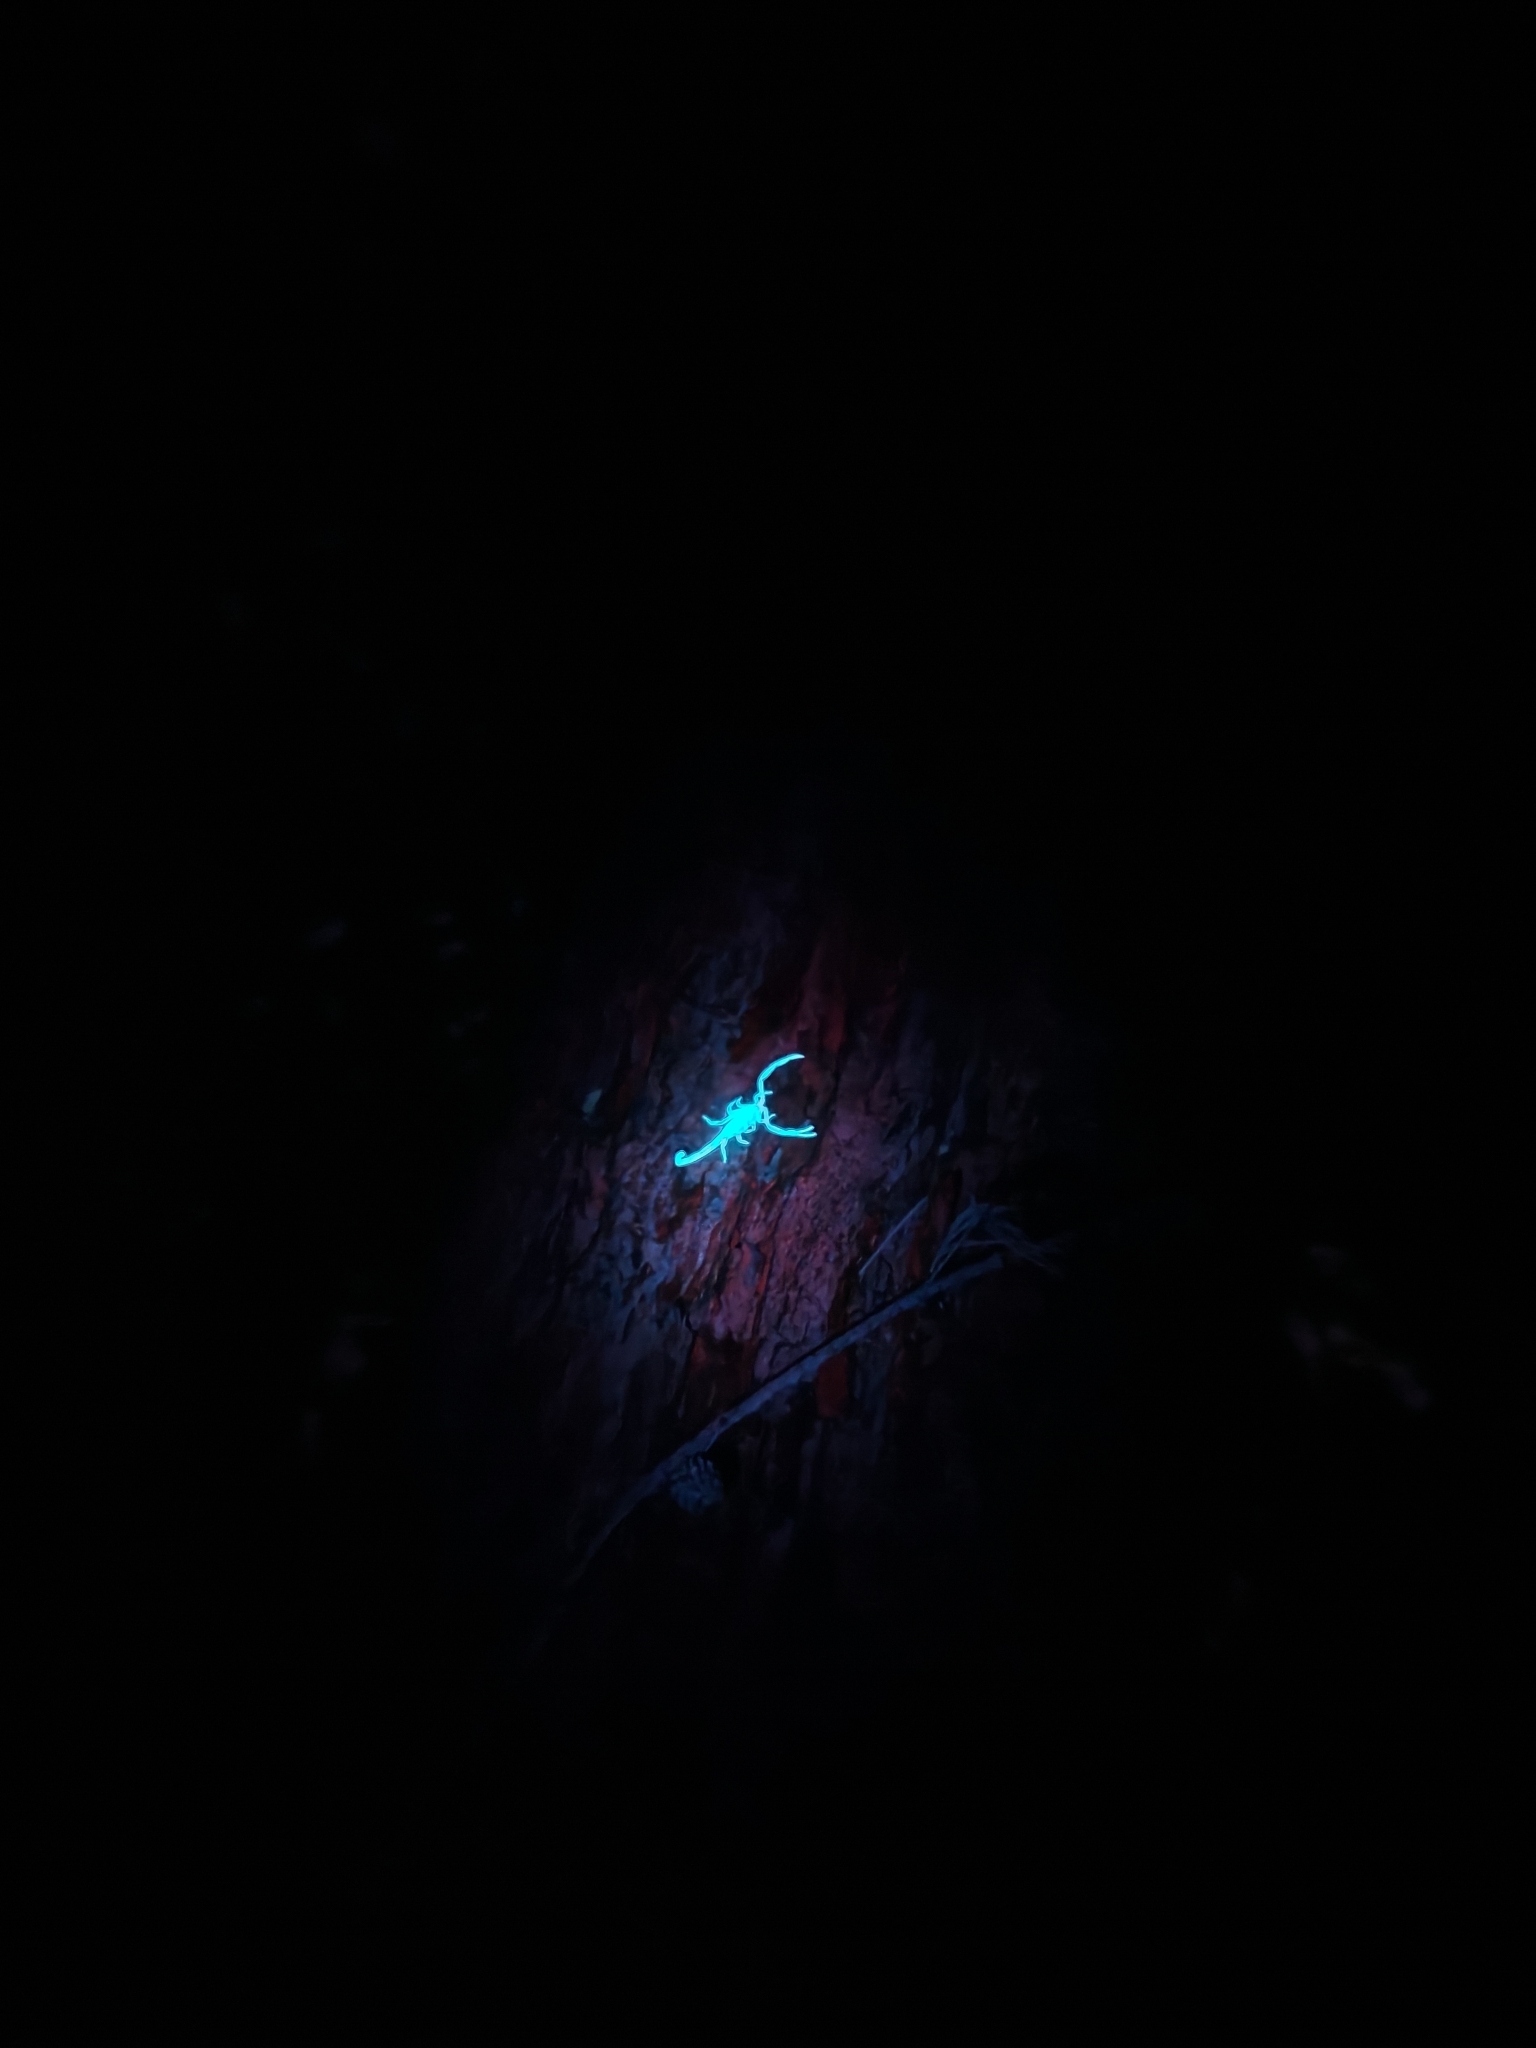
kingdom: Animalia
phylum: Arthropoda
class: Arachnida
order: Scorpiones
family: Buthidae
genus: Isometrus
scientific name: Isometrus maculatus
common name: Scorpions
